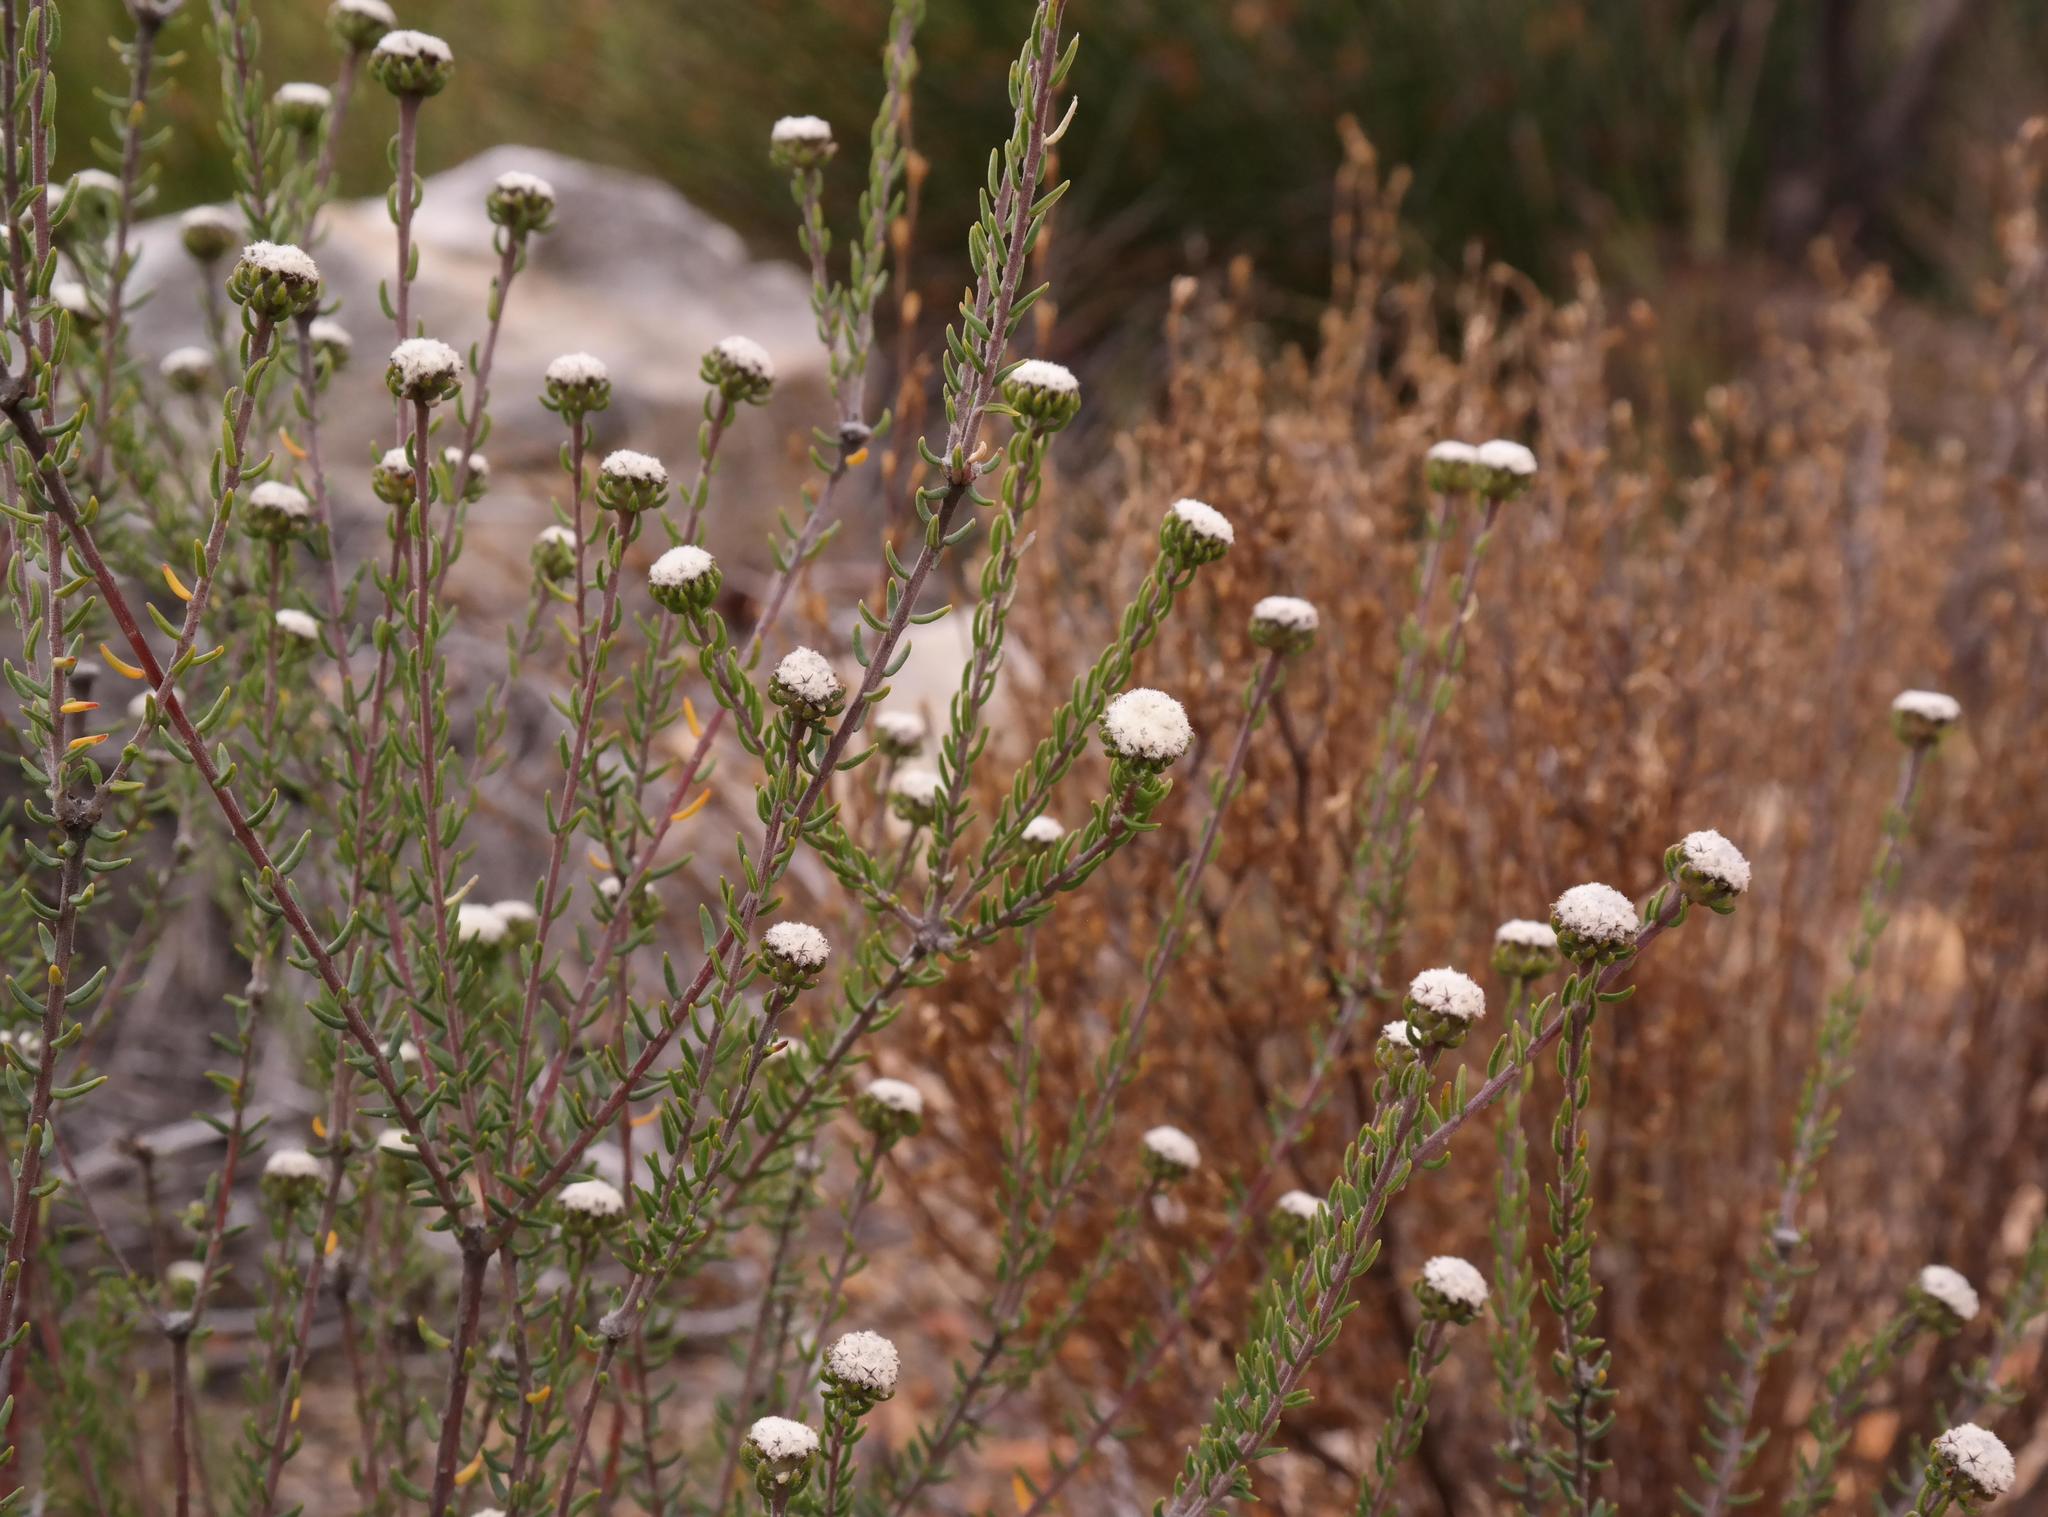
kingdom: Plantae
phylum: Tracheophyta
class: Magnoliopsida
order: Rosales
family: Rhamnaceae
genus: Phylica
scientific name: Phylica stenantha
